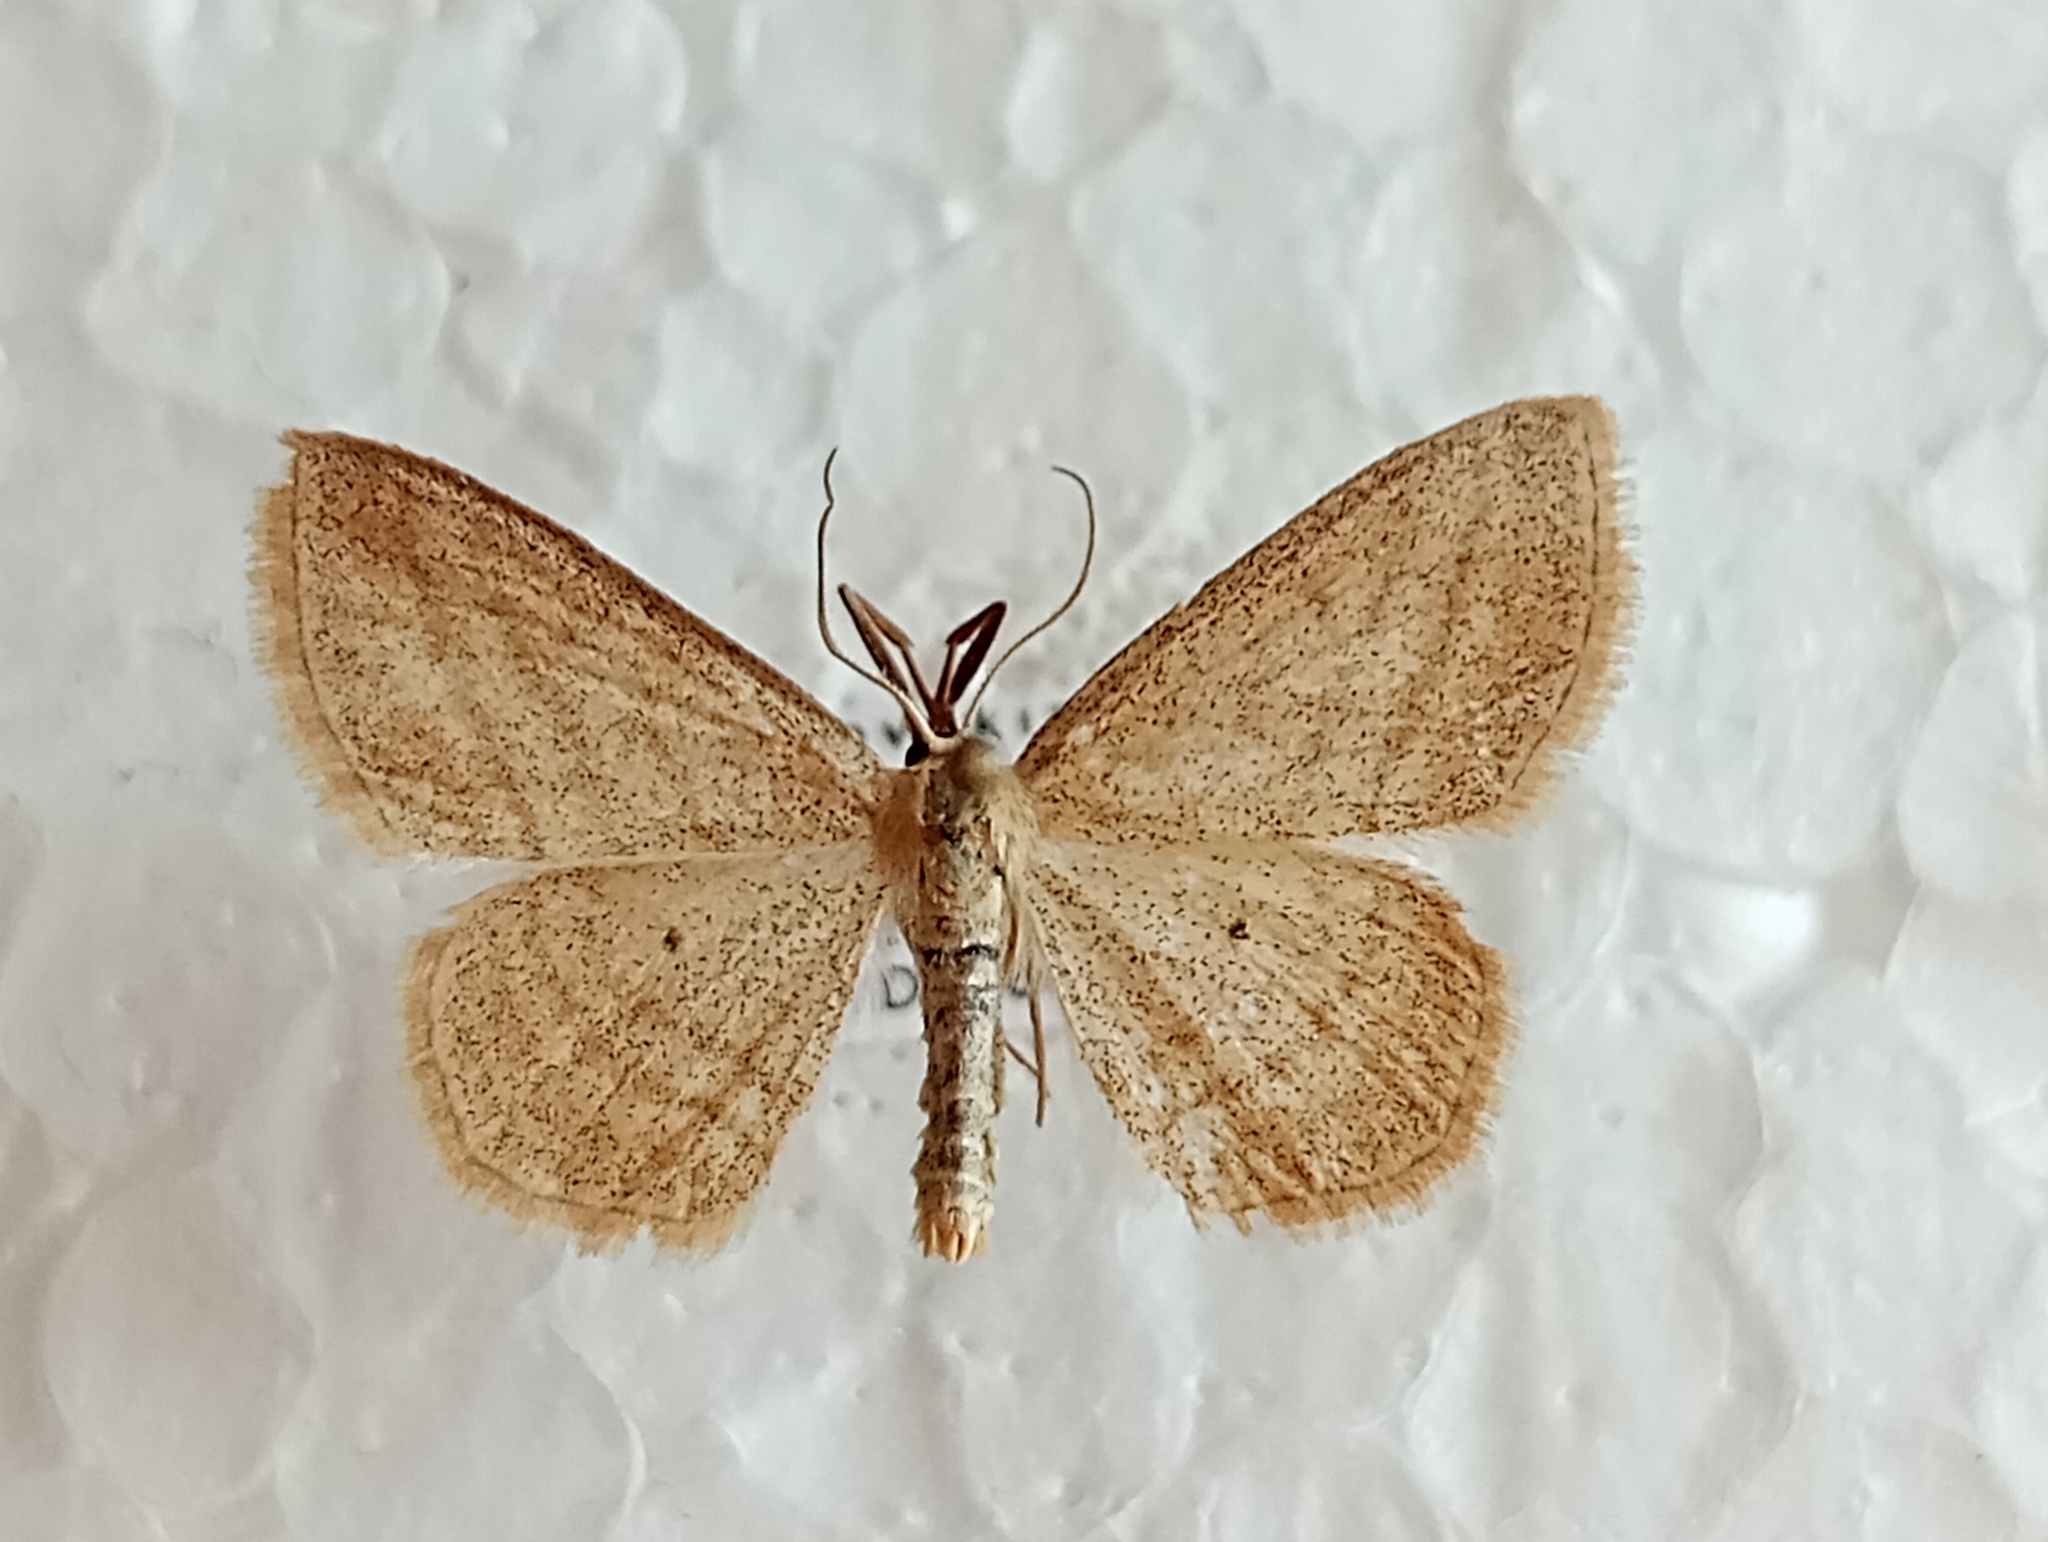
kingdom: Animalia
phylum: Arthropoda
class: Insecta
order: Lepidoptera
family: Geometridae
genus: Scopula
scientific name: Scopula virgulata
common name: Streaked wave
